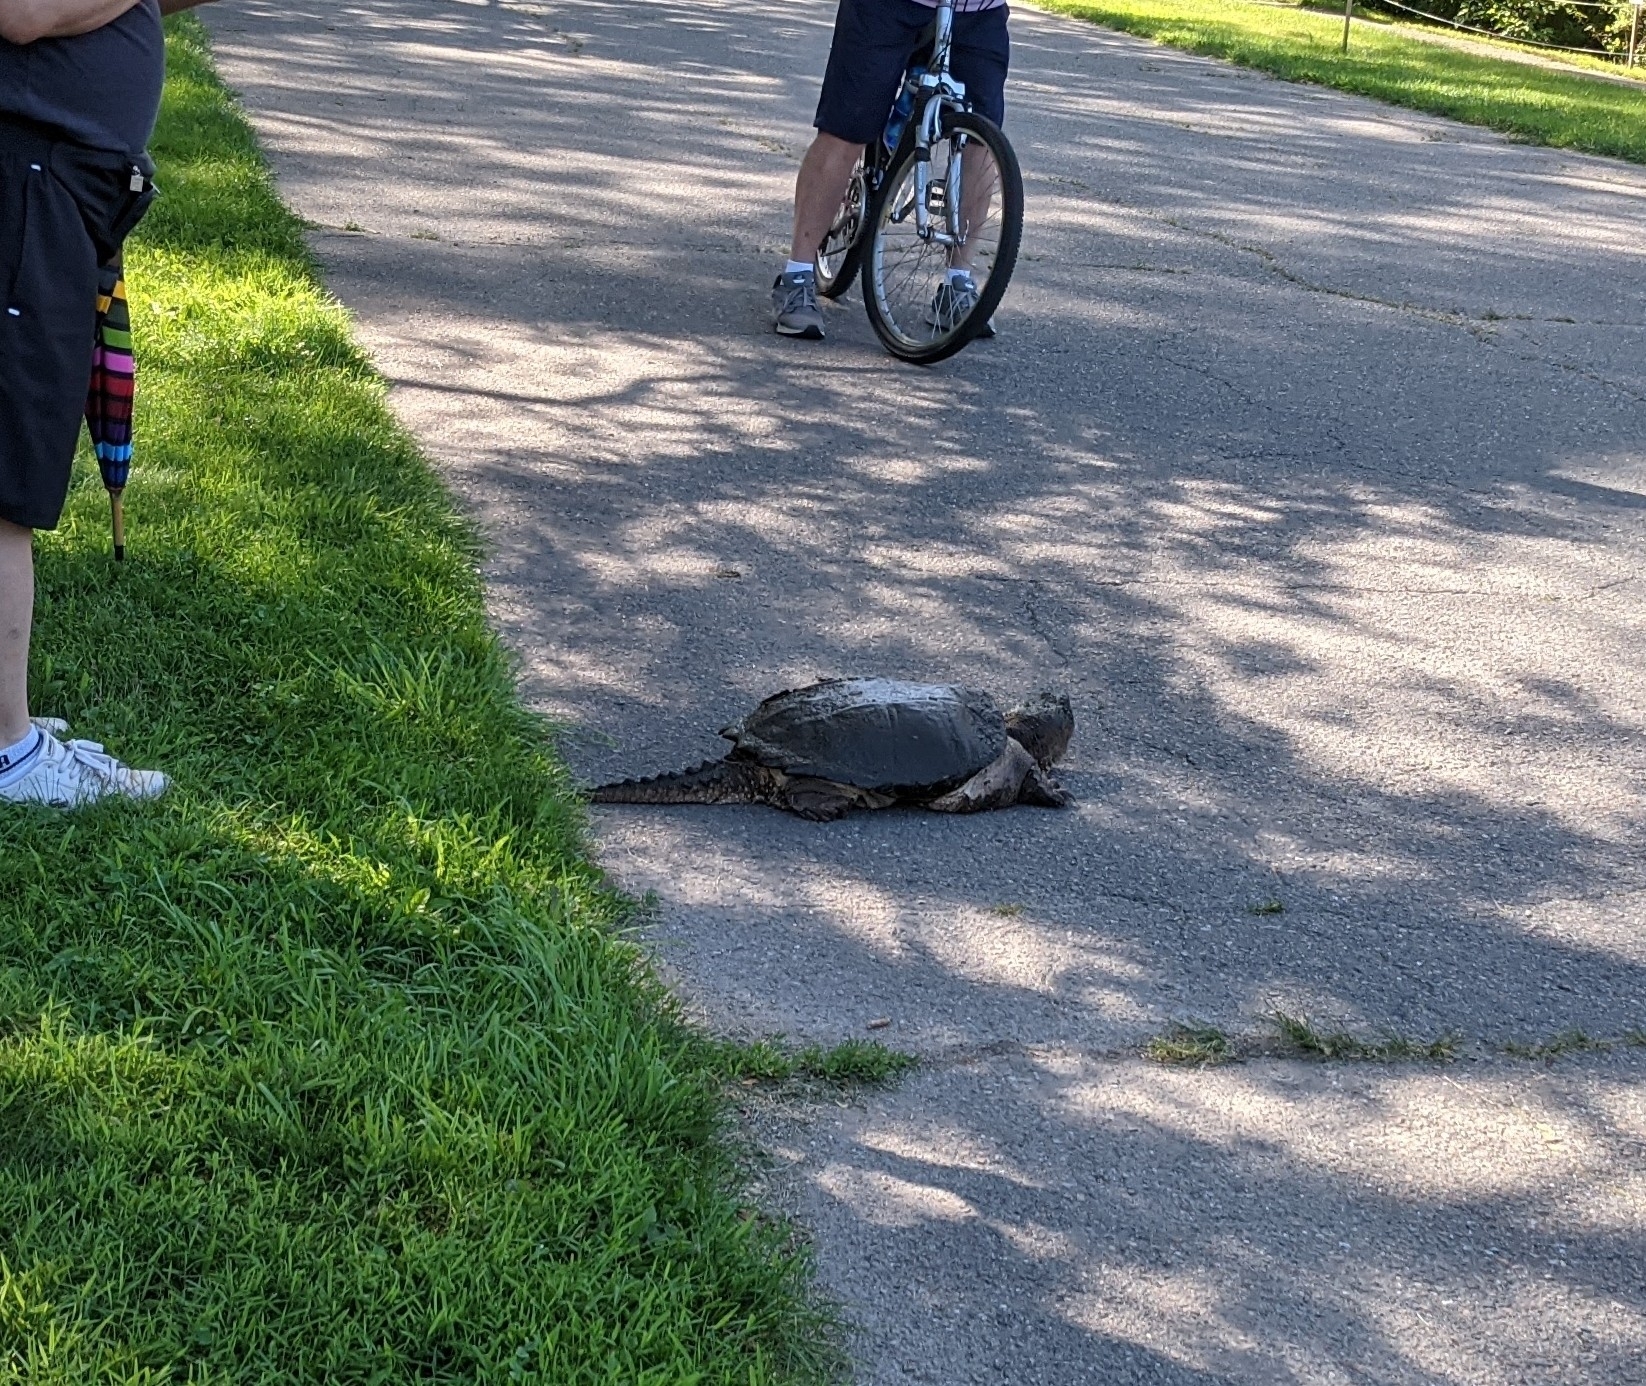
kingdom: Animalia
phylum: Chordata
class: Testudines
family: Chelydridae
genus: Chelydra
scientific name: Chelydra serpentina
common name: Common snapping turtle
